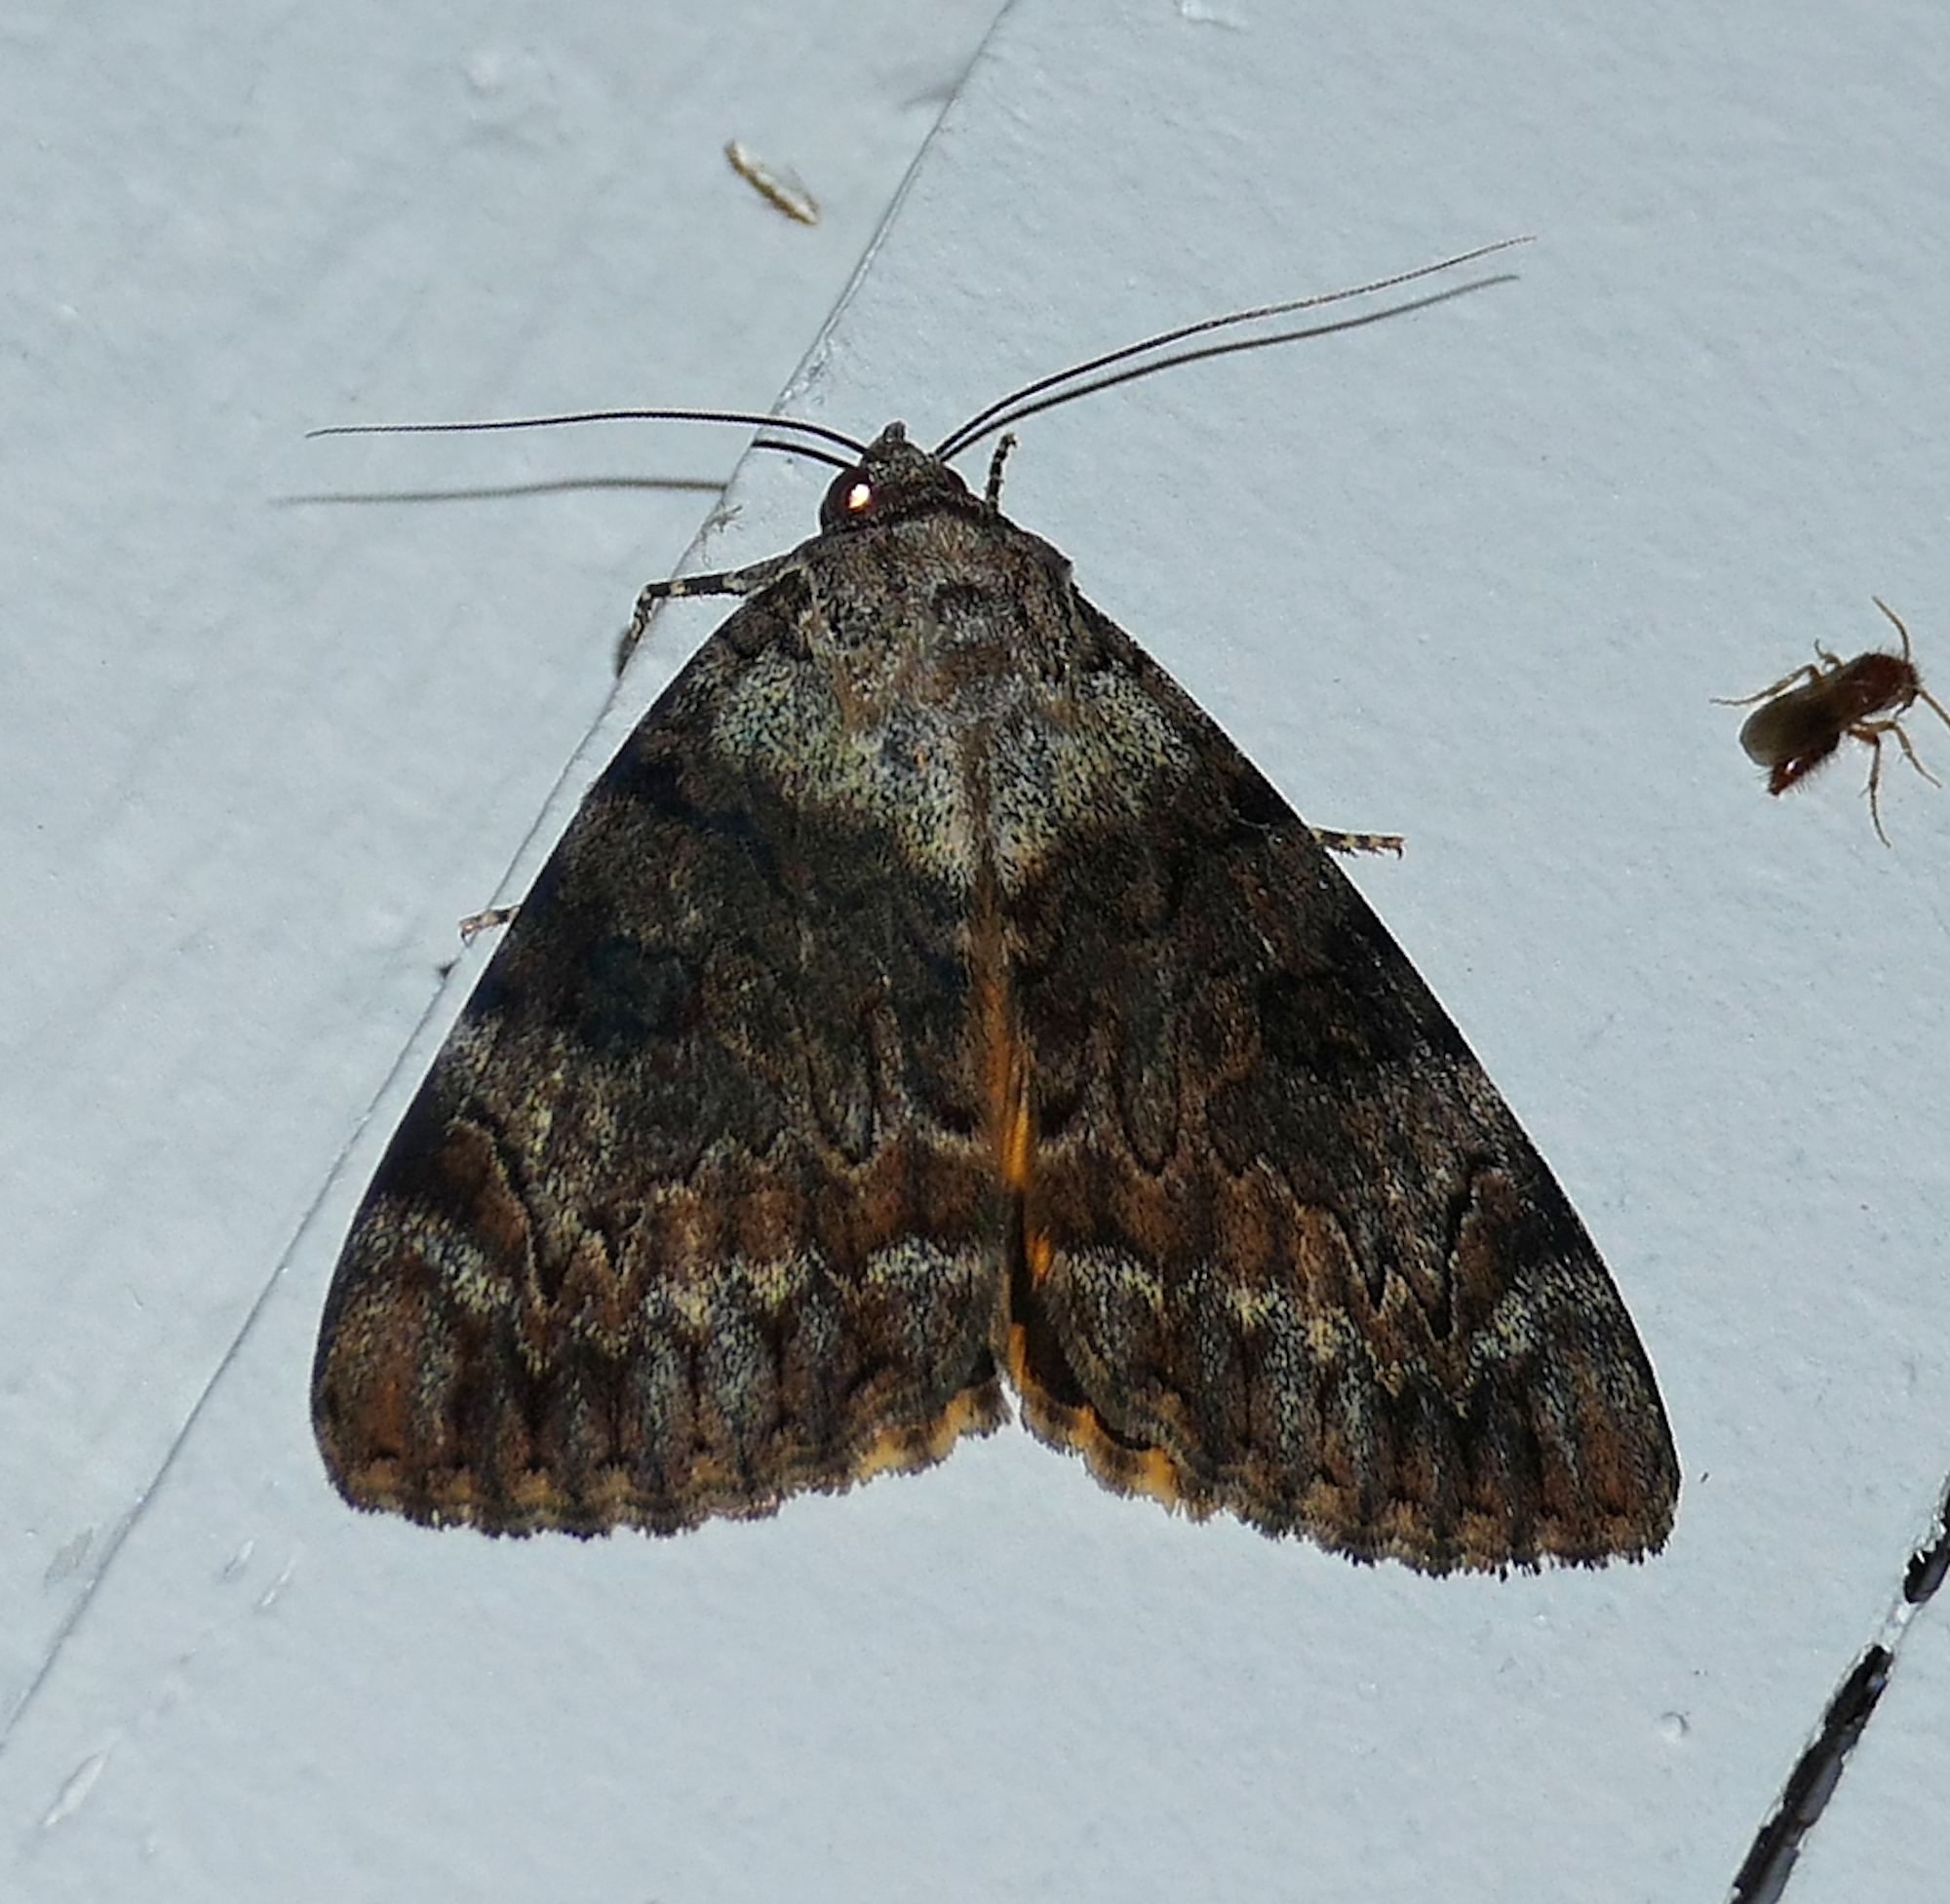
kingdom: Animalia
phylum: Arthropoda
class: Insecta
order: Lepidoptera
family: Erebidae
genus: Catocala
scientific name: Catocala
